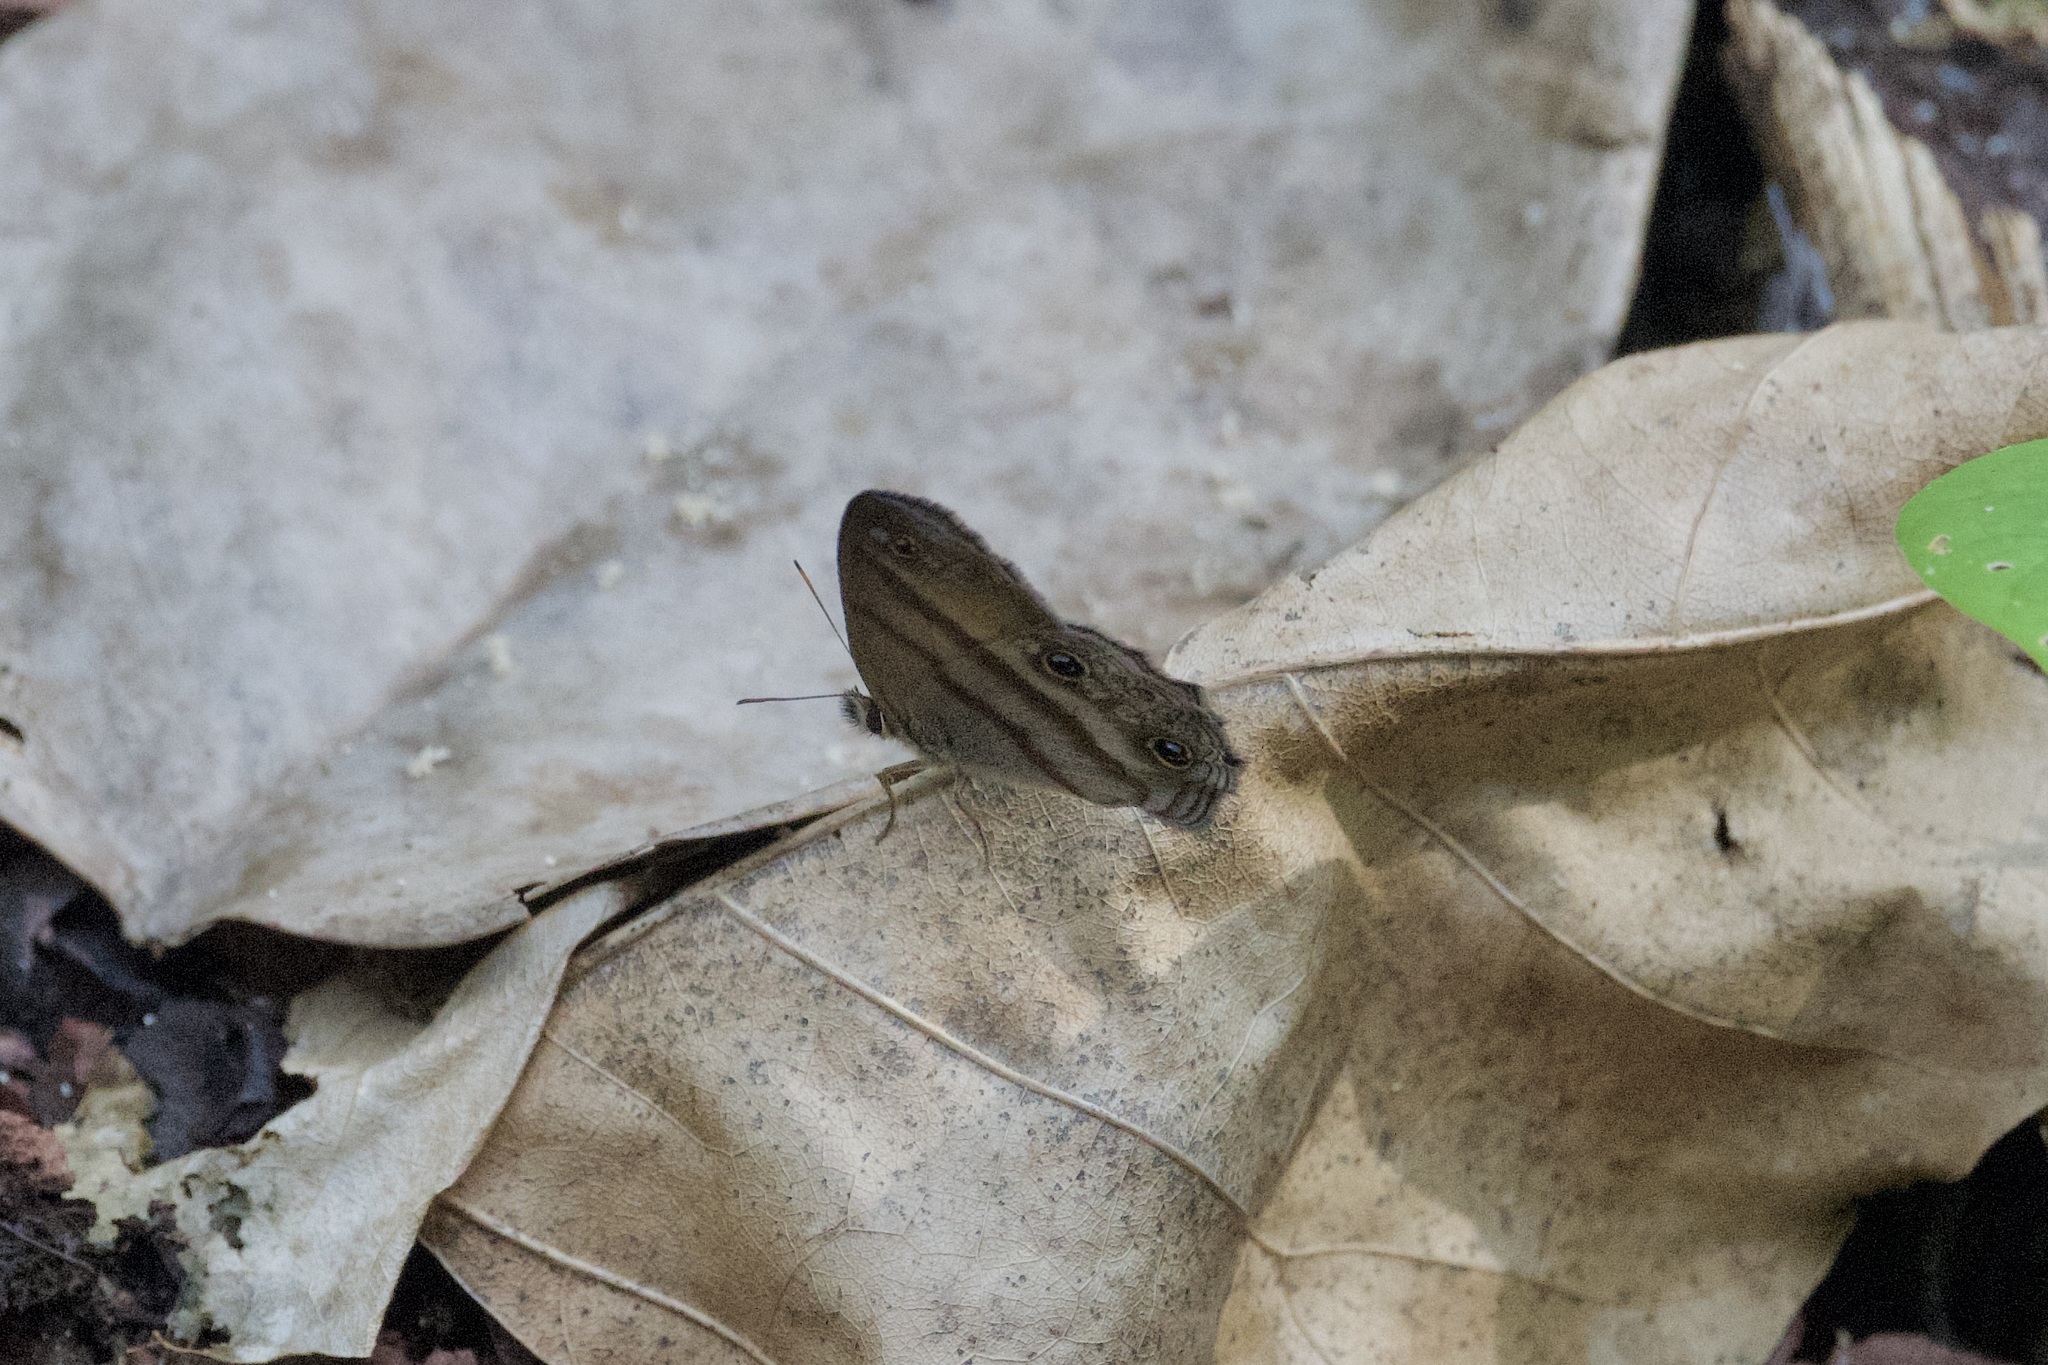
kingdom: Animalia
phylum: Arthropoda
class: Insecta
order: Lepidoptera
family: Nymphalidae
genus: Argyreuptychia
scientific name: Argyreuptychia penelope
